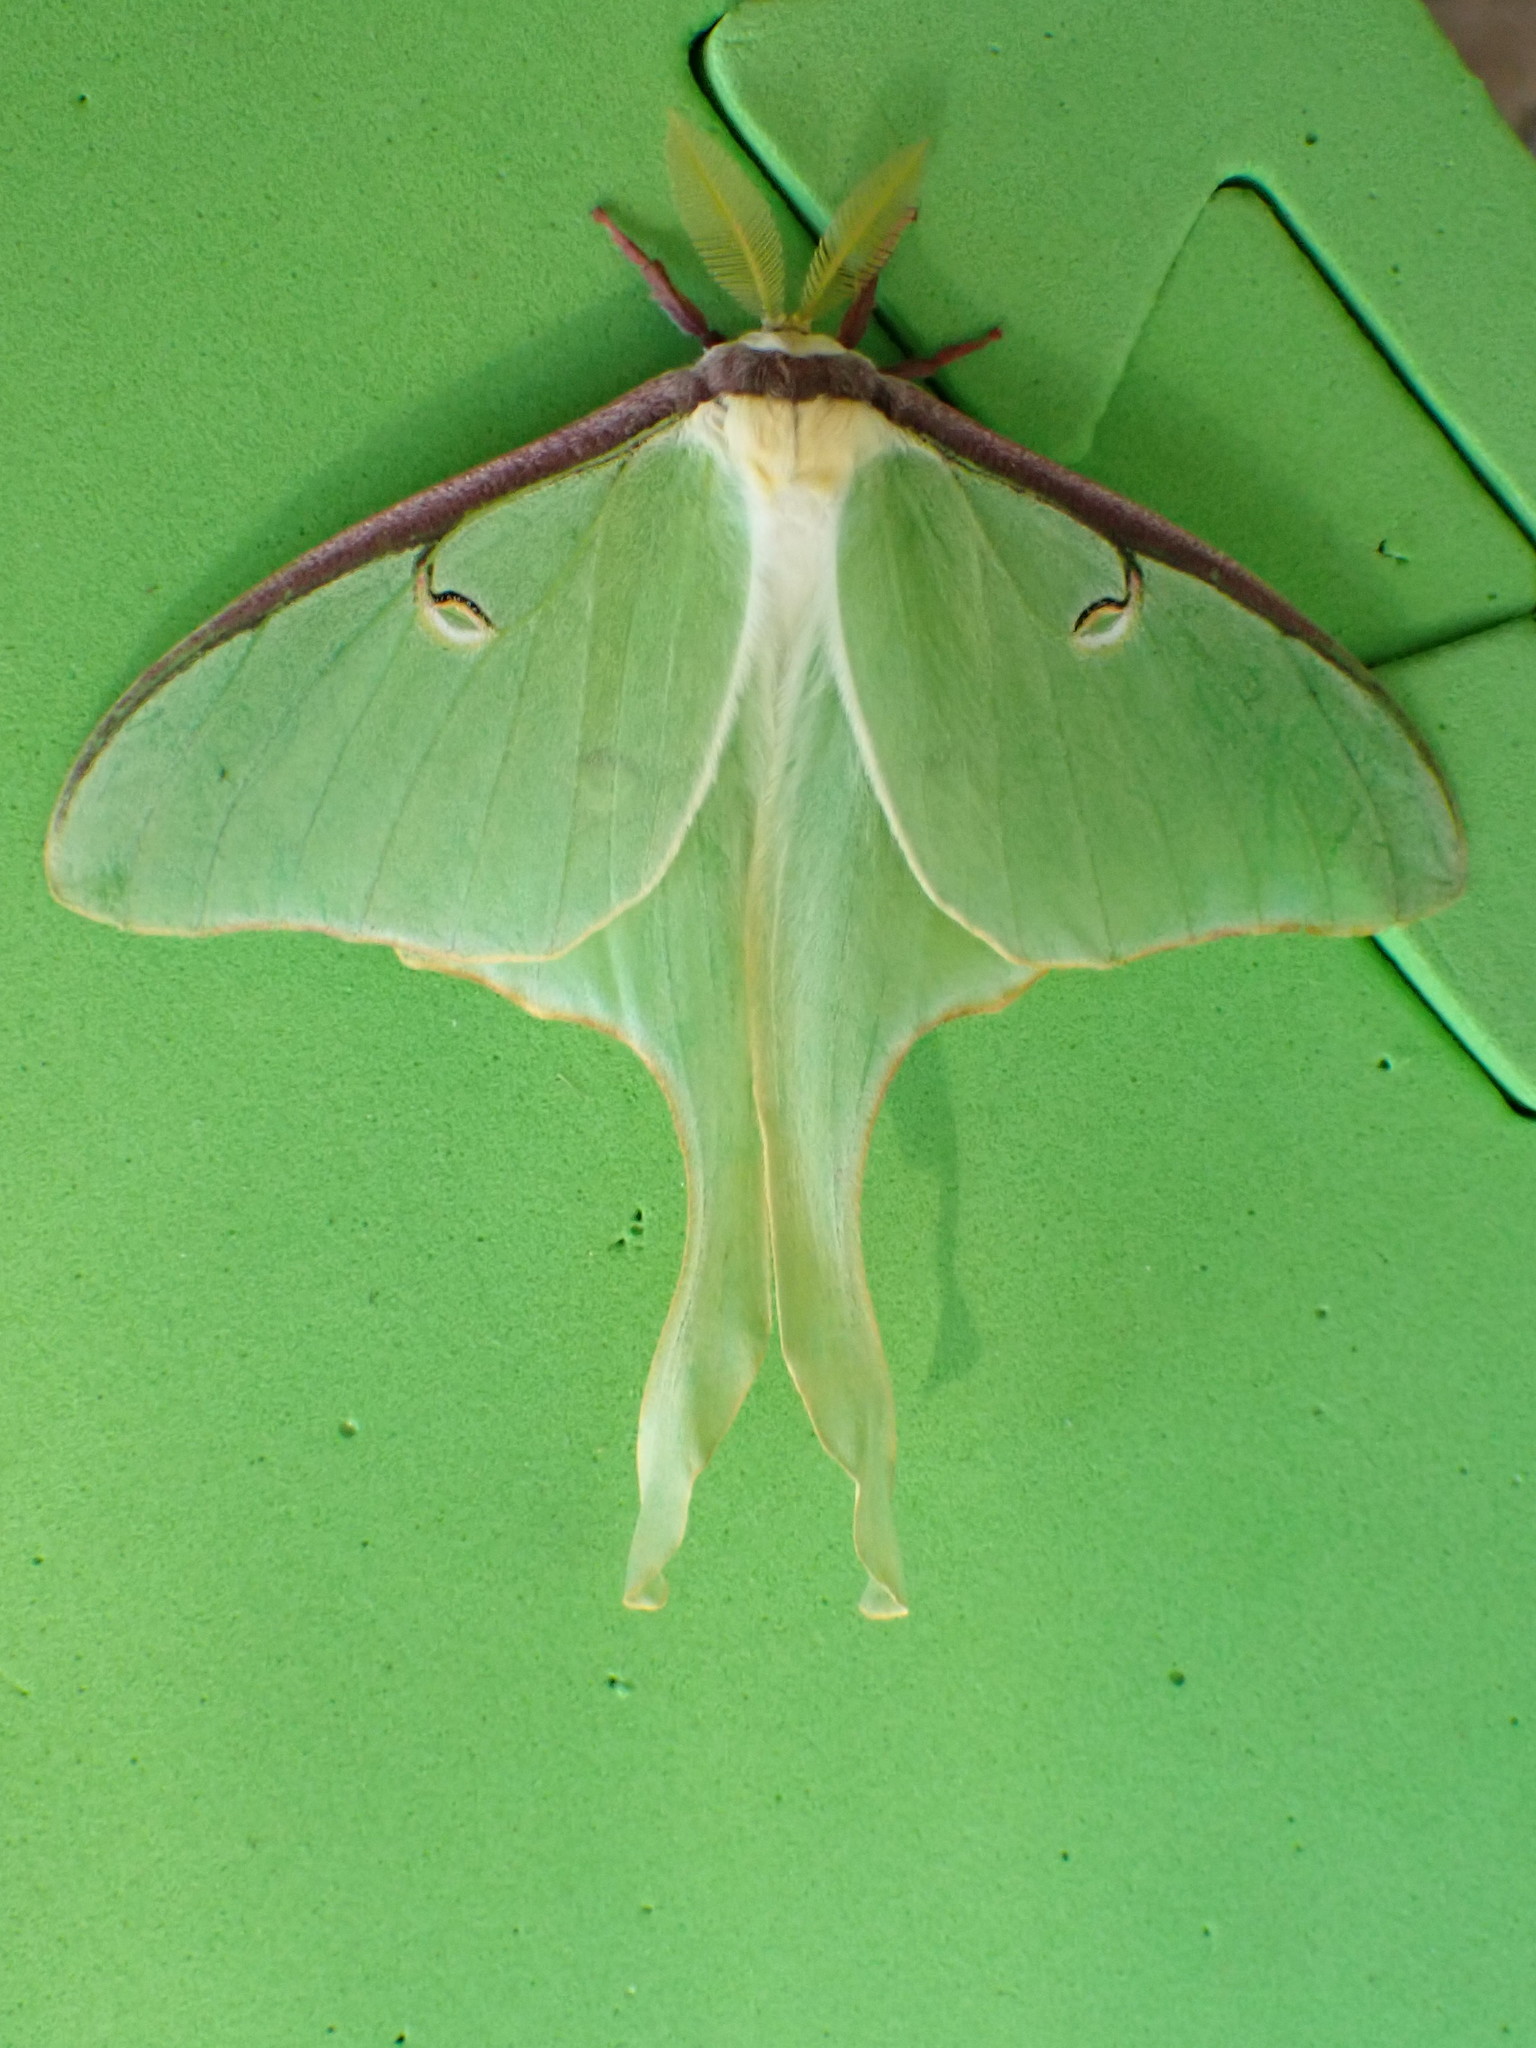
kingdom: Animalia
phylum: Arthropoda
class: Insecta
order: Lepidoptera
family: Saturniidae
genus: Actias
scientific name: Actias luna
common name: Luna moth
